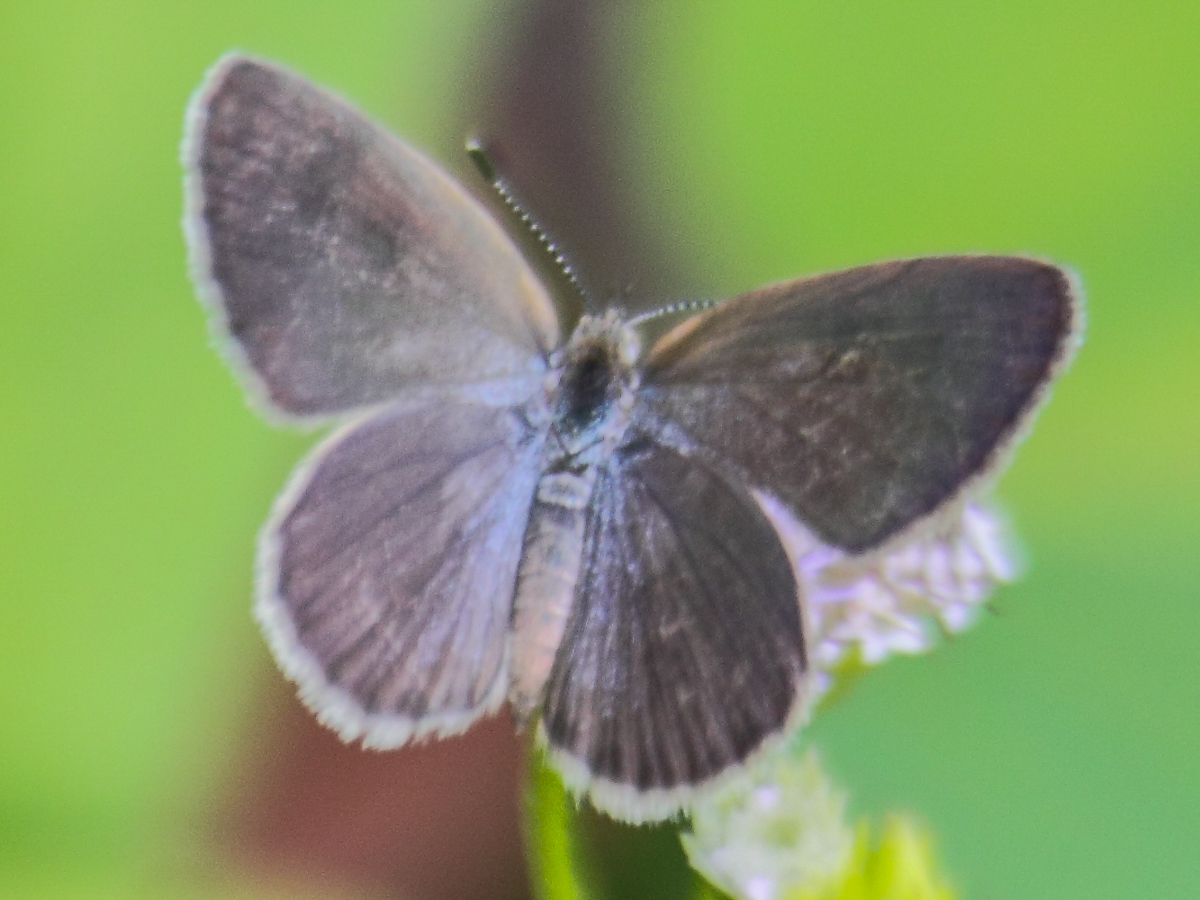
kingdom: Animalia
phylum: Arthropoda
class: Insecta
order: Lepidoptera
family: Lycaenidae
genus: Zizeeria
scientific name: Zizeeria karsandra
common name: Dark grass blue
